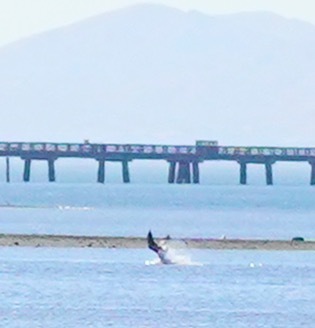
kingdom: Animalia
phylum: Chordata
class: Aves
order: Accipitriformes
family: Pandionidae
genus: Pandion
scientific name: Pandion haliaetus
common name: Osprey
